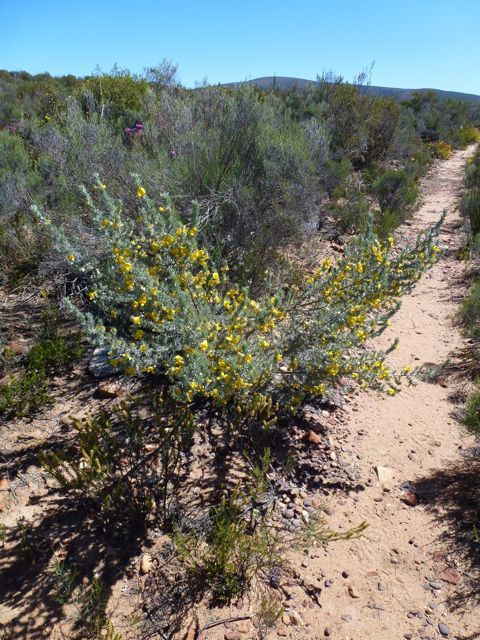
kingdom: Plantae
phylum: Tracheophyta
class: Magnoliopsida
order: Fabales
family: Fabaceae
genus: Aspalathus
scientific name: Aspalathus hystrix
